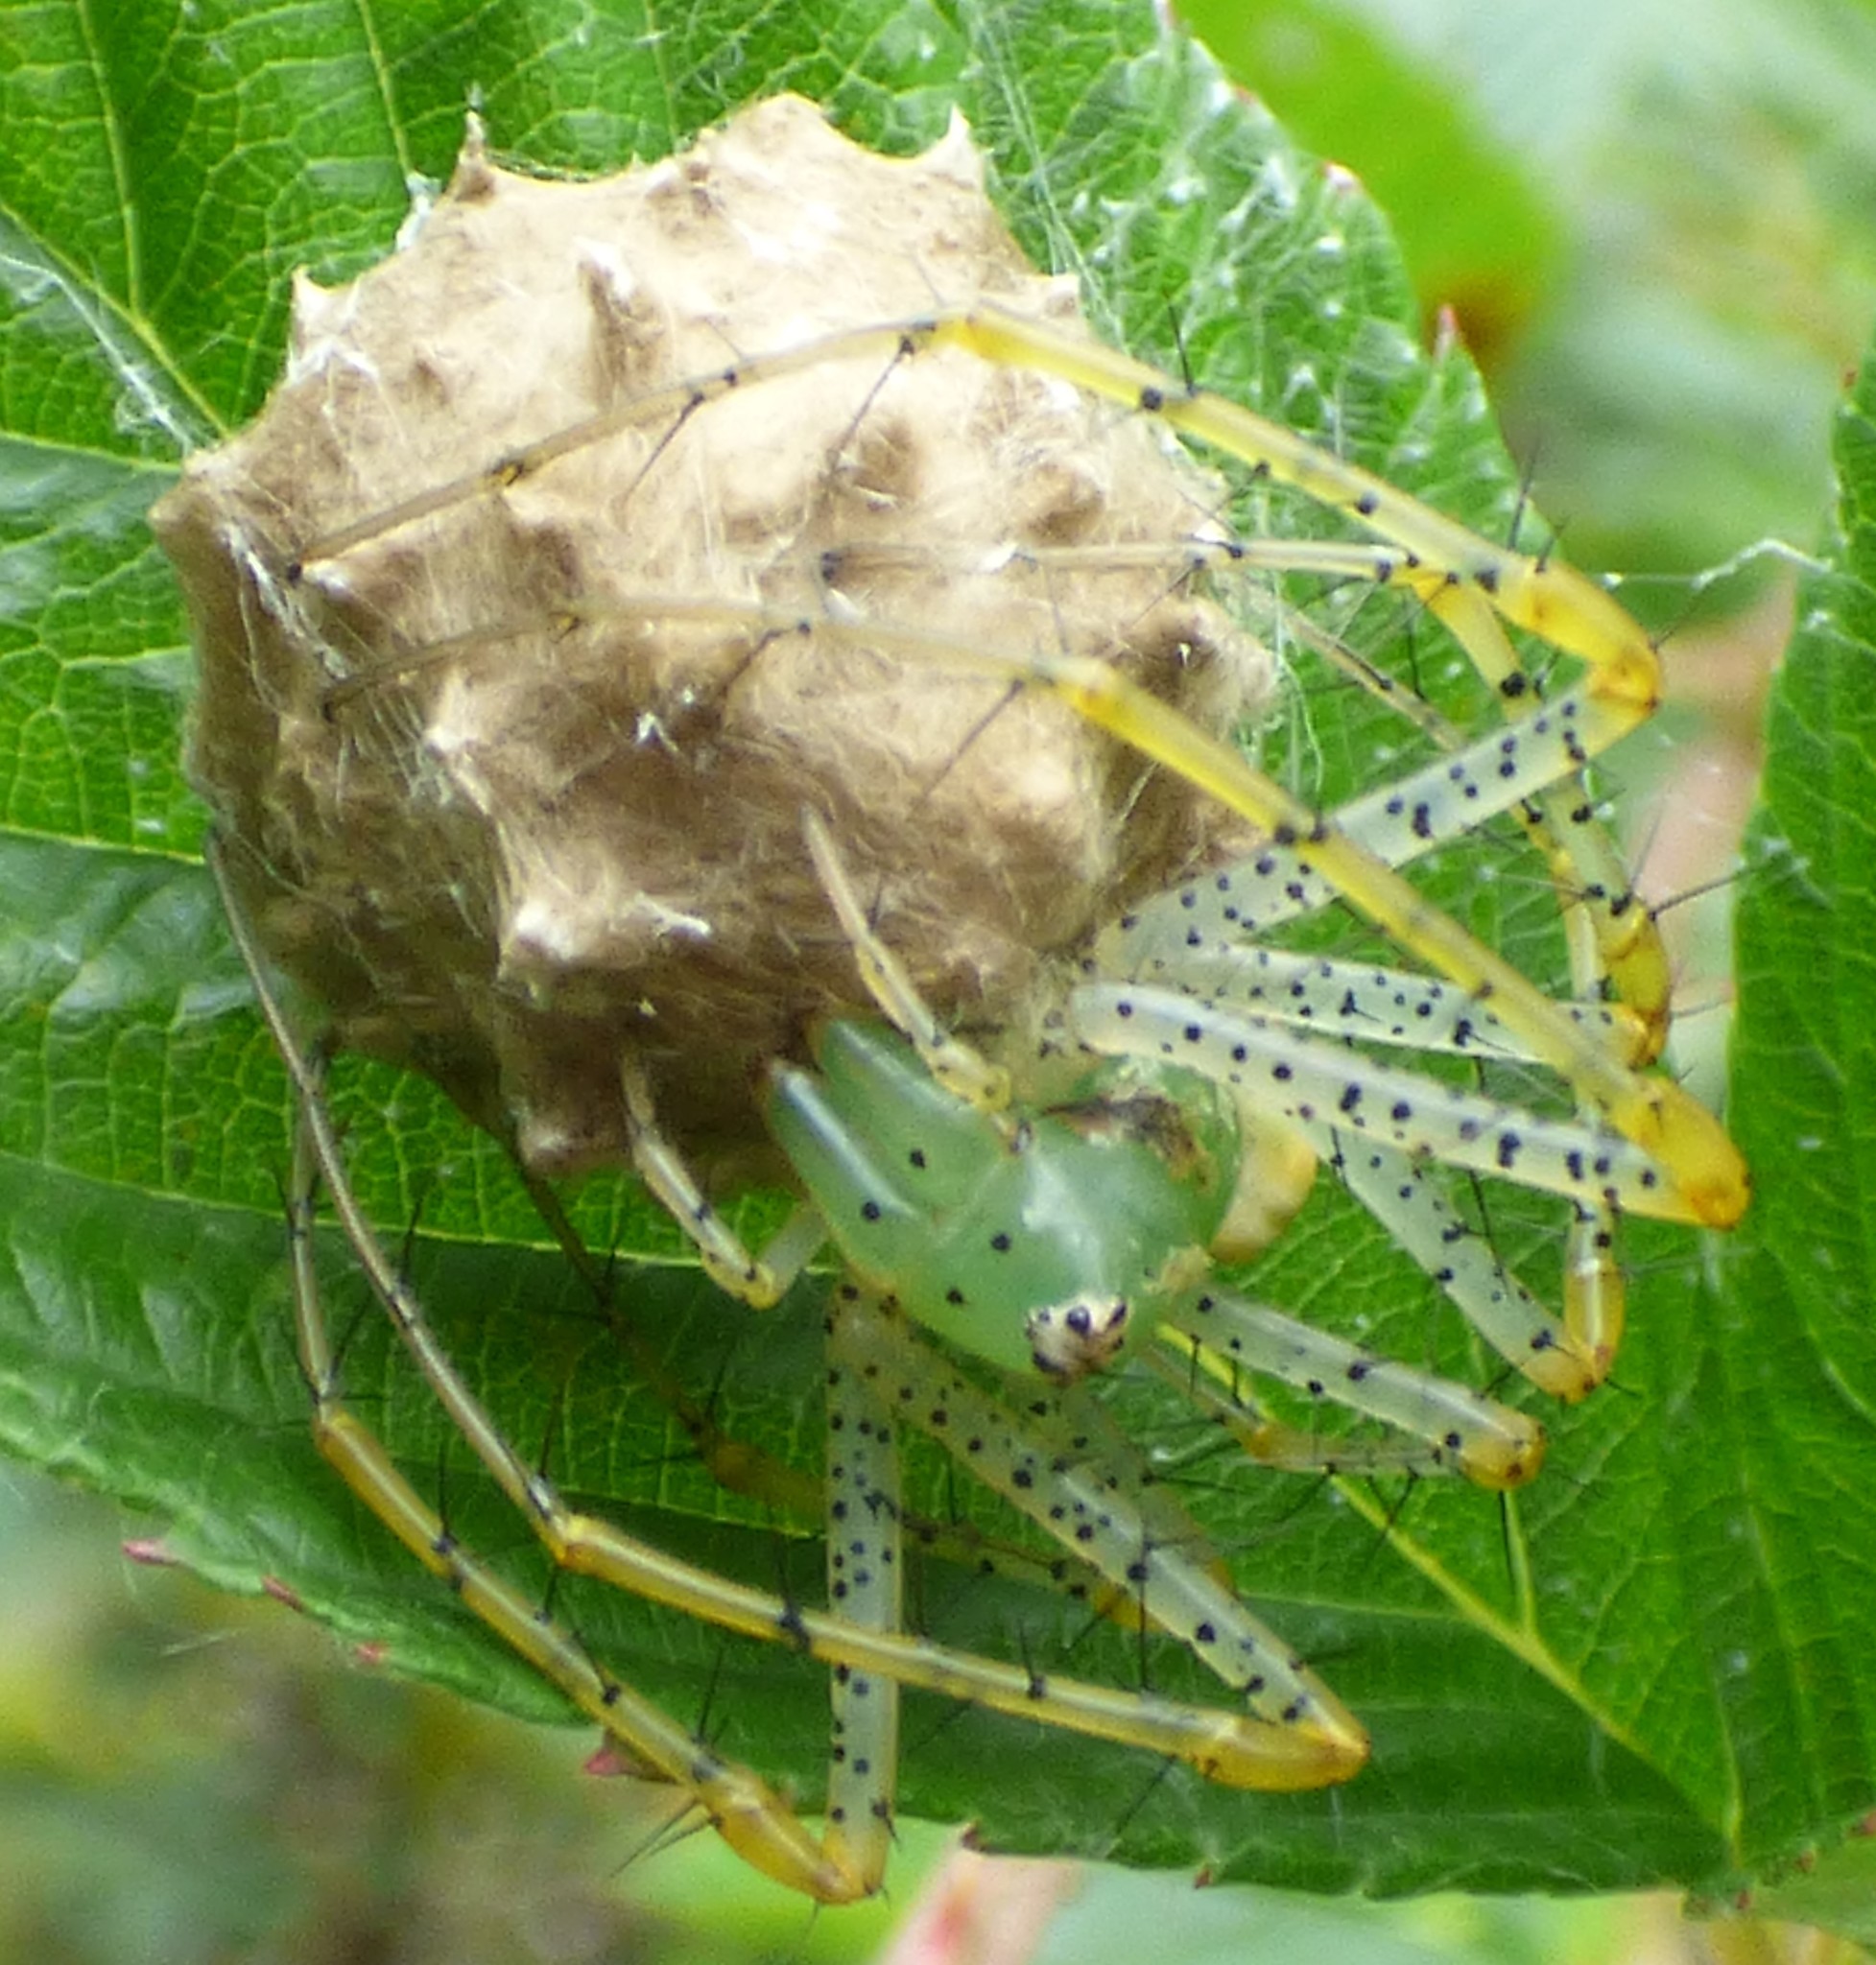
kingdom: Animalia
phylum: Arthropoda
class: Arachnida
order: Araneae
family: Oxyopidae
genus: Peucetia
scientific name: Peucetia viridans
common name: Lynx spiders
